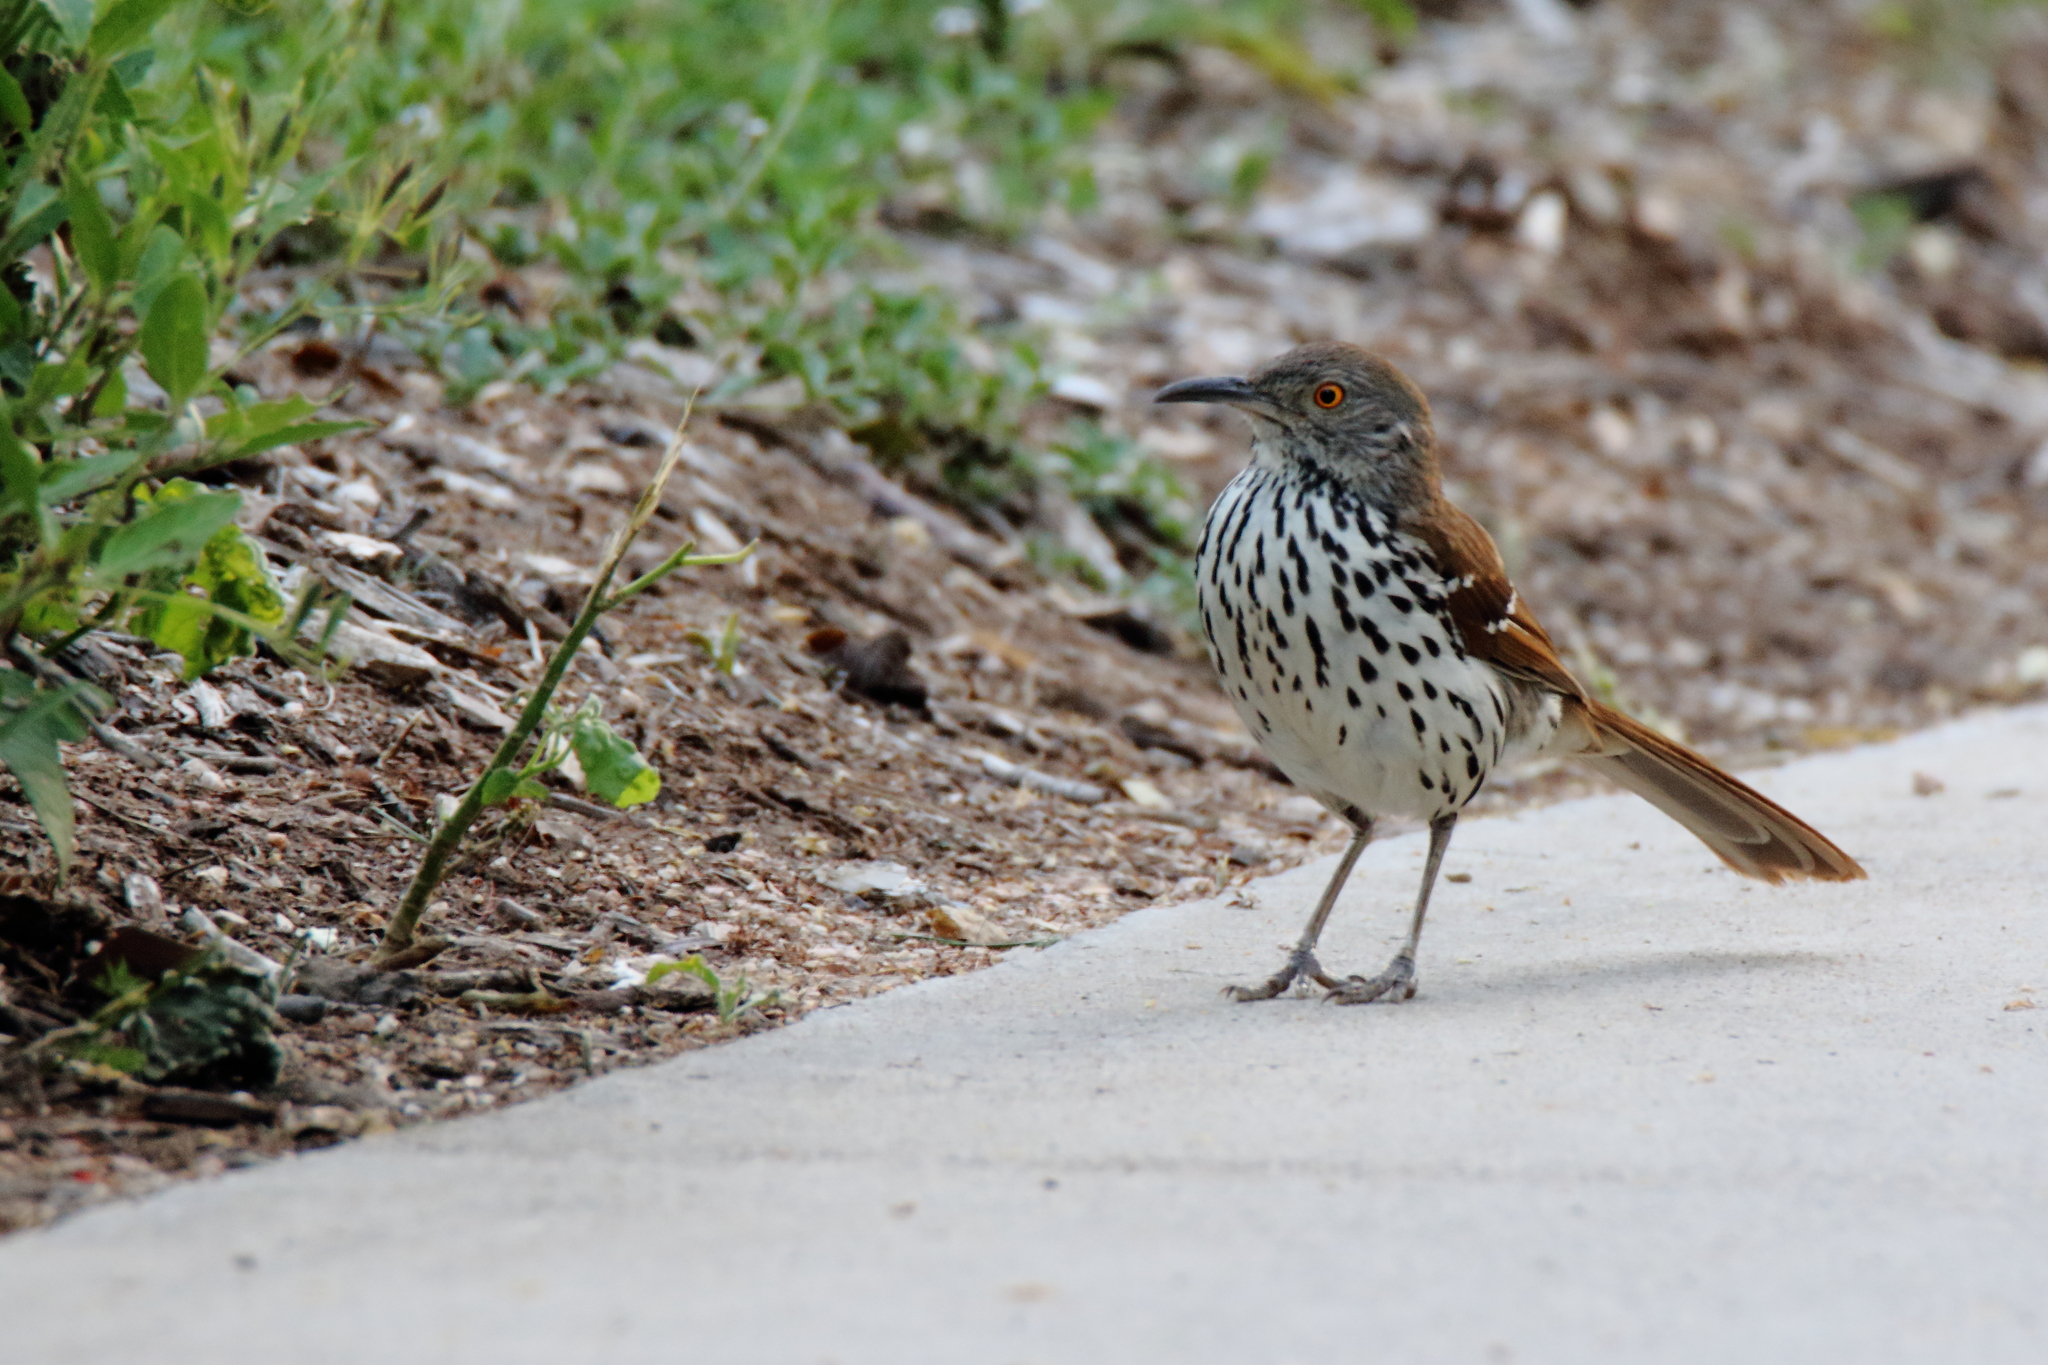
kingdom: Animalia
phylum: Chordata
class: Aves
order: Passeriformes
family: Mimidae
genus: Toxostoma
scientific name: Toxostoma longirostre
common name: Long-billed thrasher
